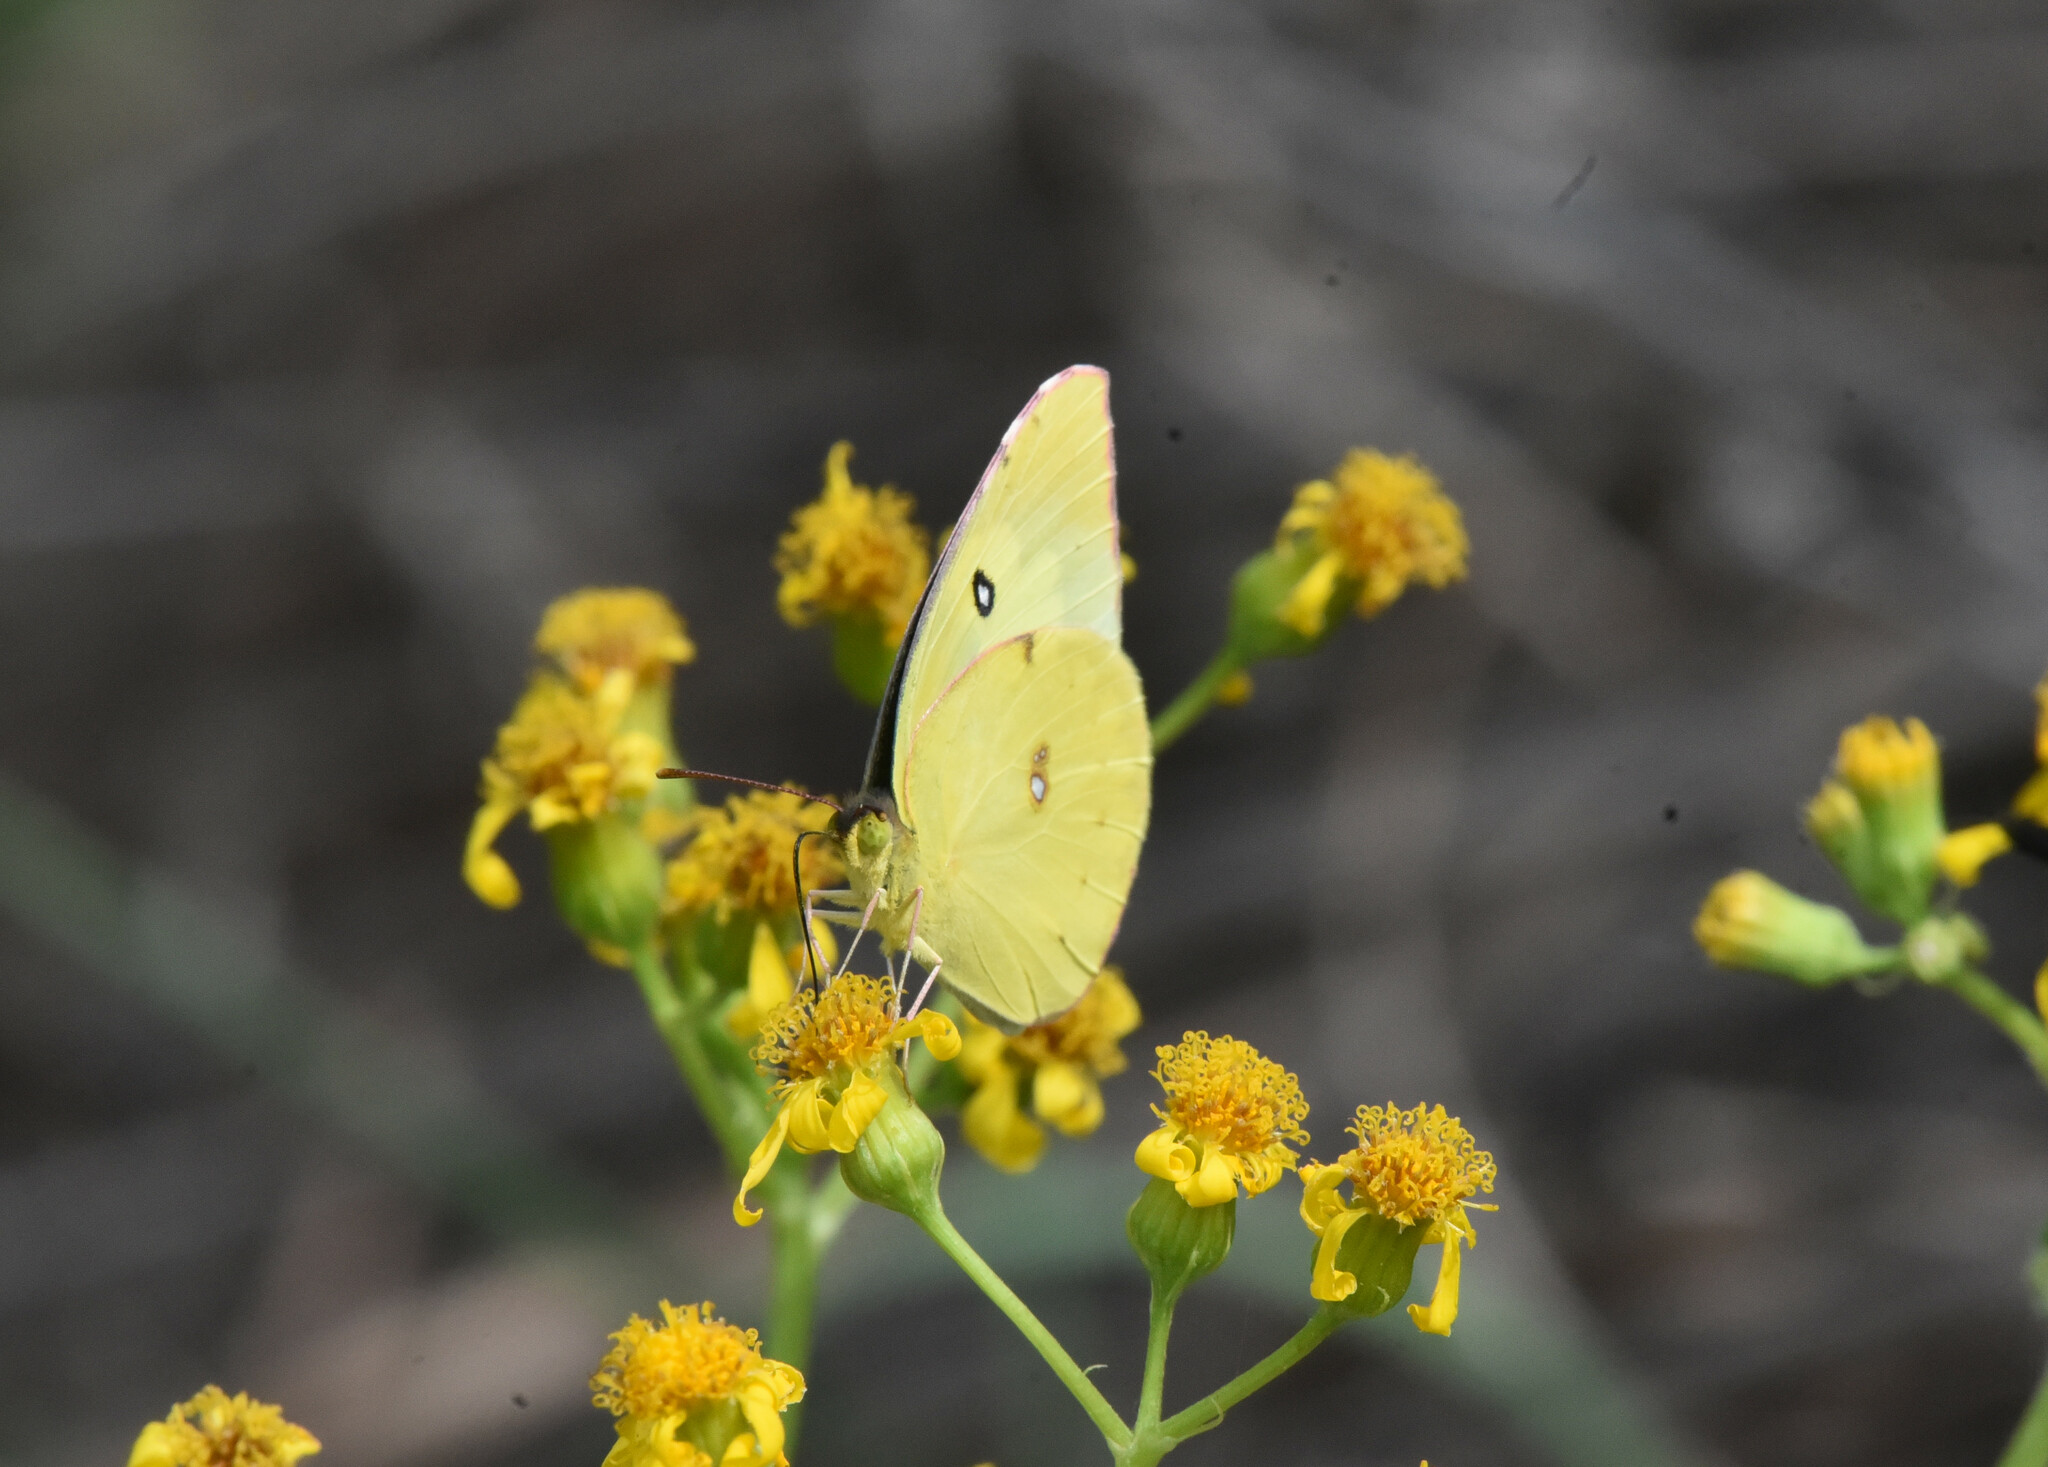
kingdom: Animalia
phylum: Arthropoda
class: Insecta
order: Lepidoptera
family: Pieridae
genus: Zerene
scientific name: Zerene cesonia
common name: Southern dogface
